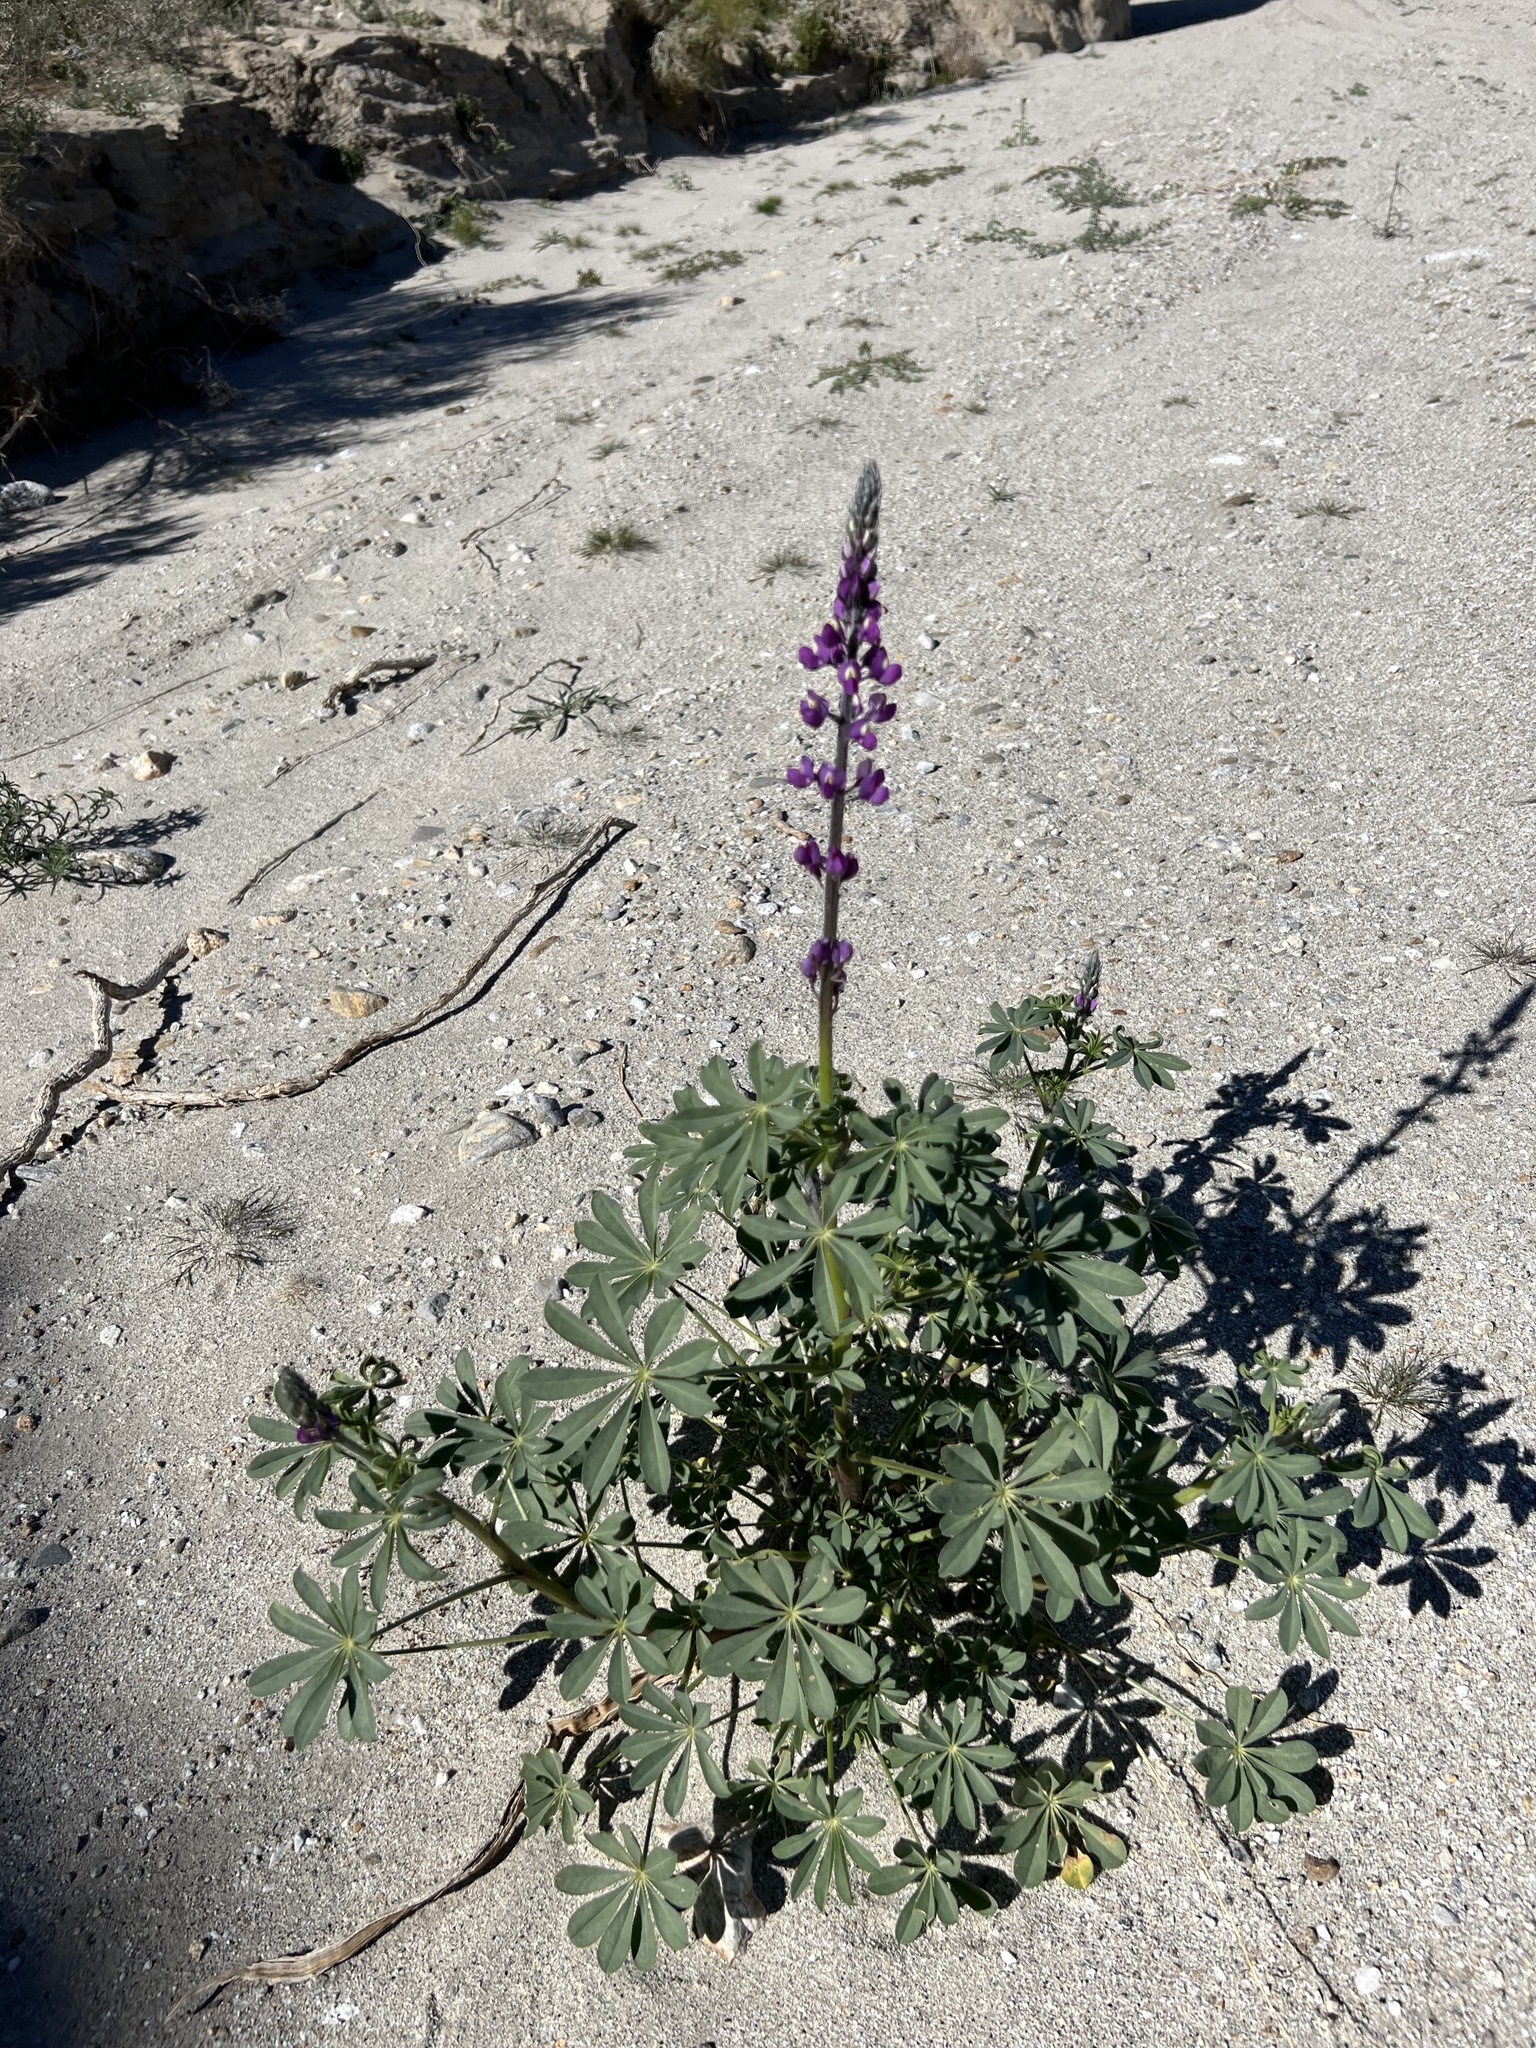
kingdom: Plantae
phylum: Tracheophyta
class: Magnoliopsida
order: Fabales
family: Fabaceae
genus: Lupinus
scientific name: Lupinus arizonicus
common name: Arizona lupine
